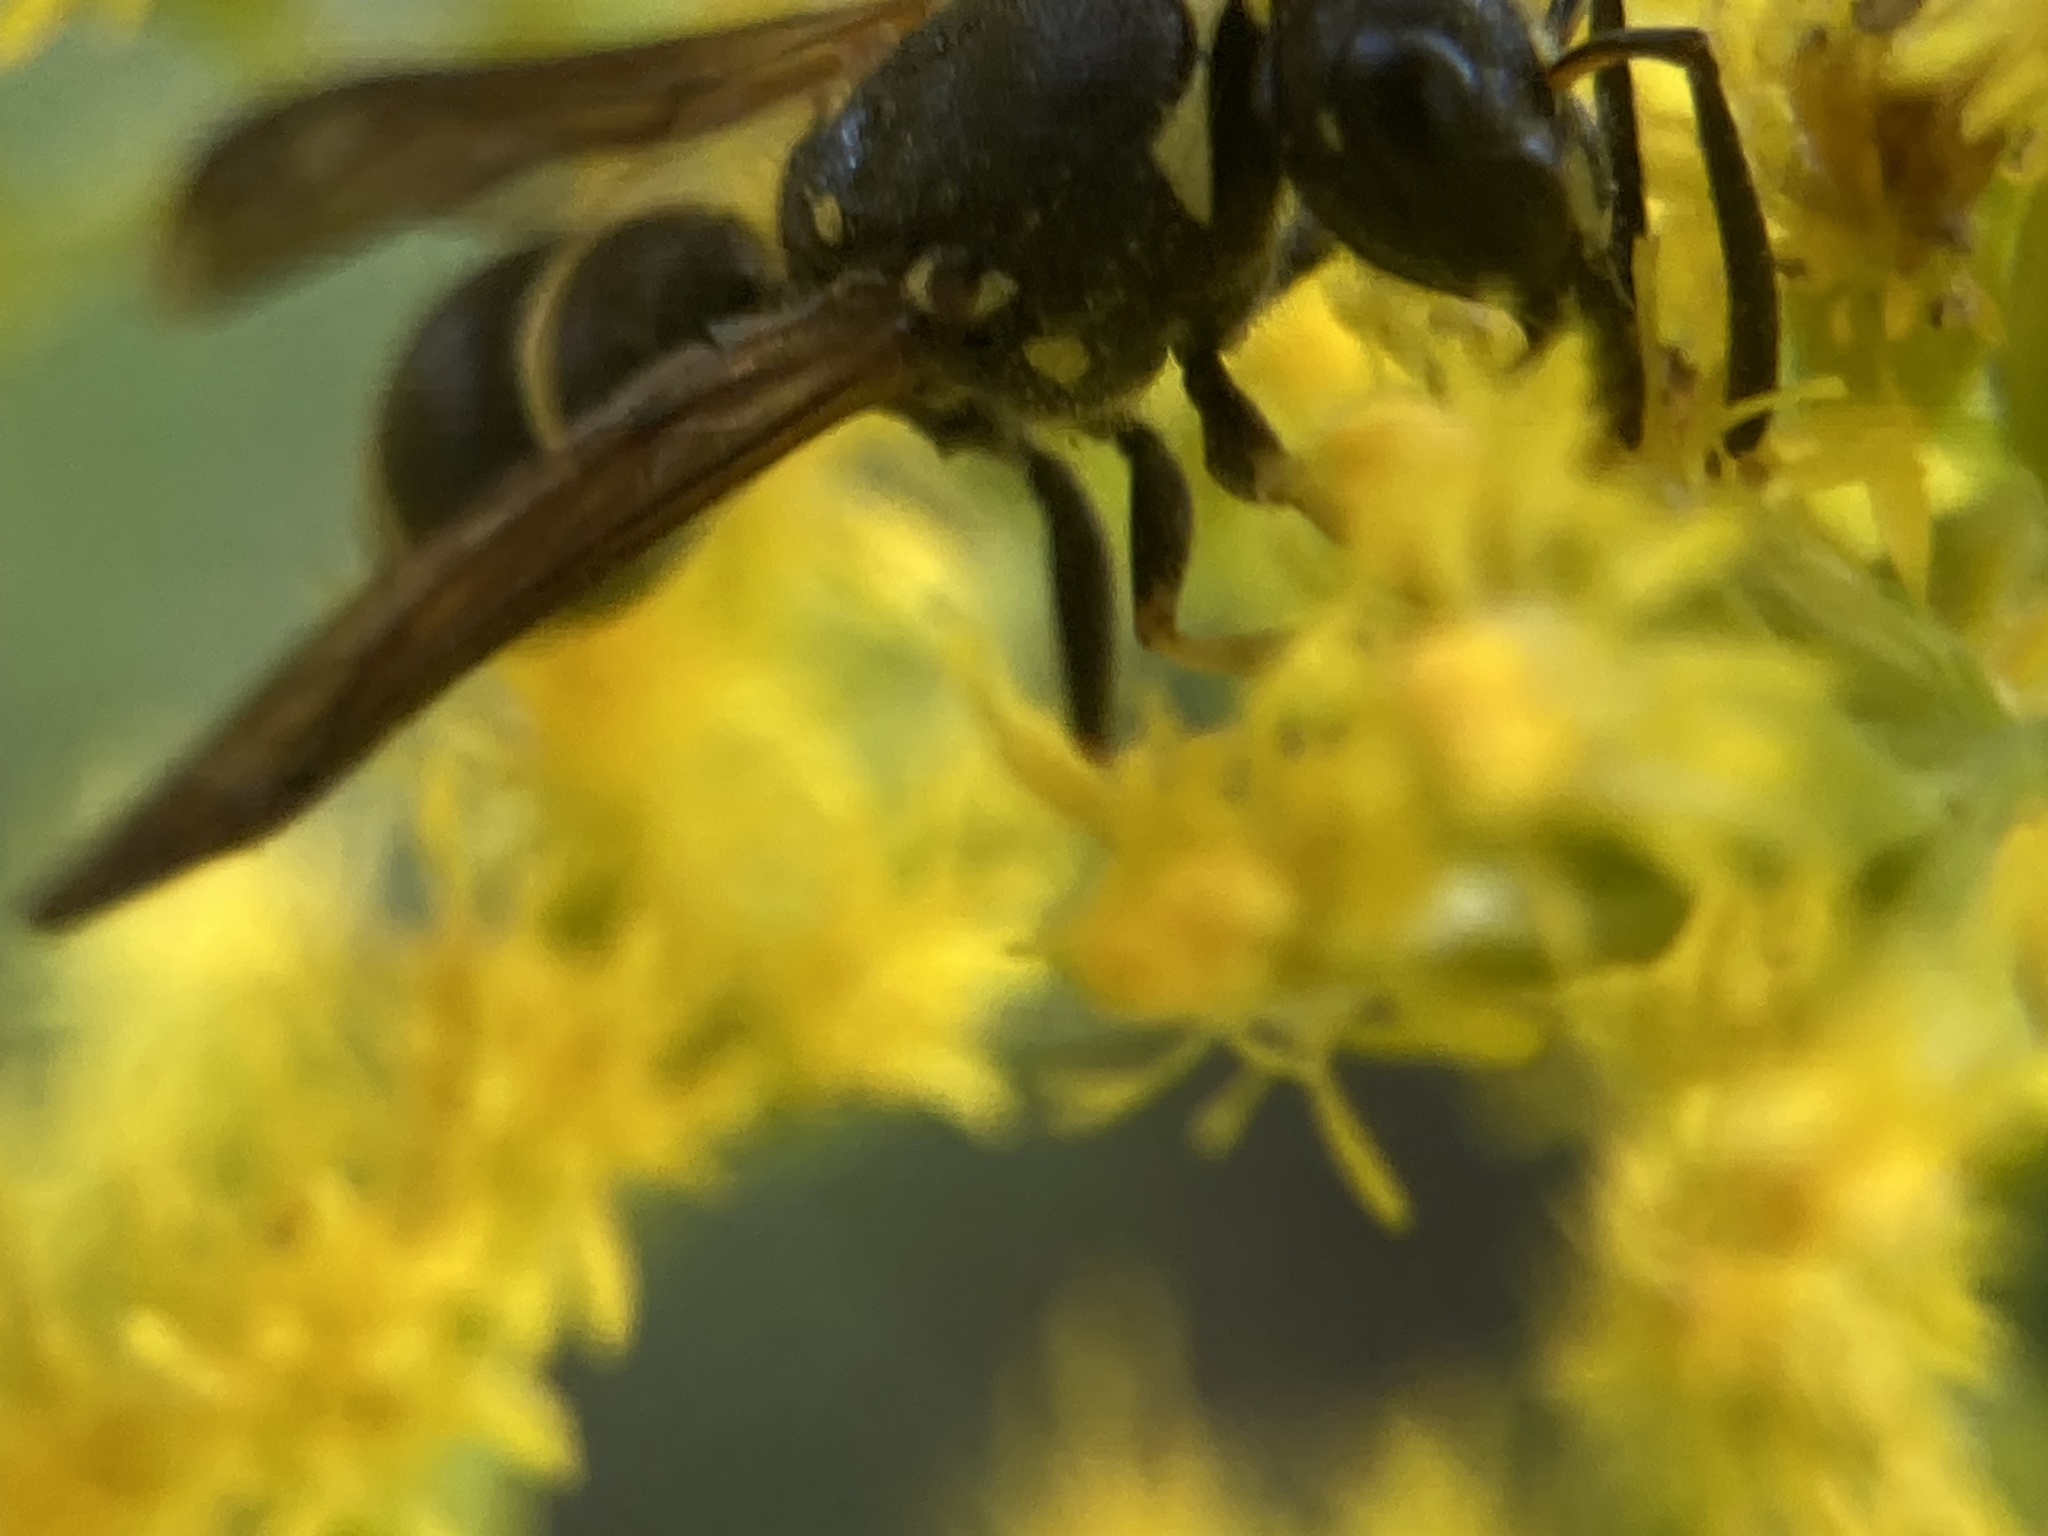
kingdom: Animalia
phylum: Arthropoda
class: Insecta
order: Hymenoptera
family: Vespidae
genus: Ancistrocerus
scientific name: Ancistrocerus adiabatus
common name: Bramble mason wasp
